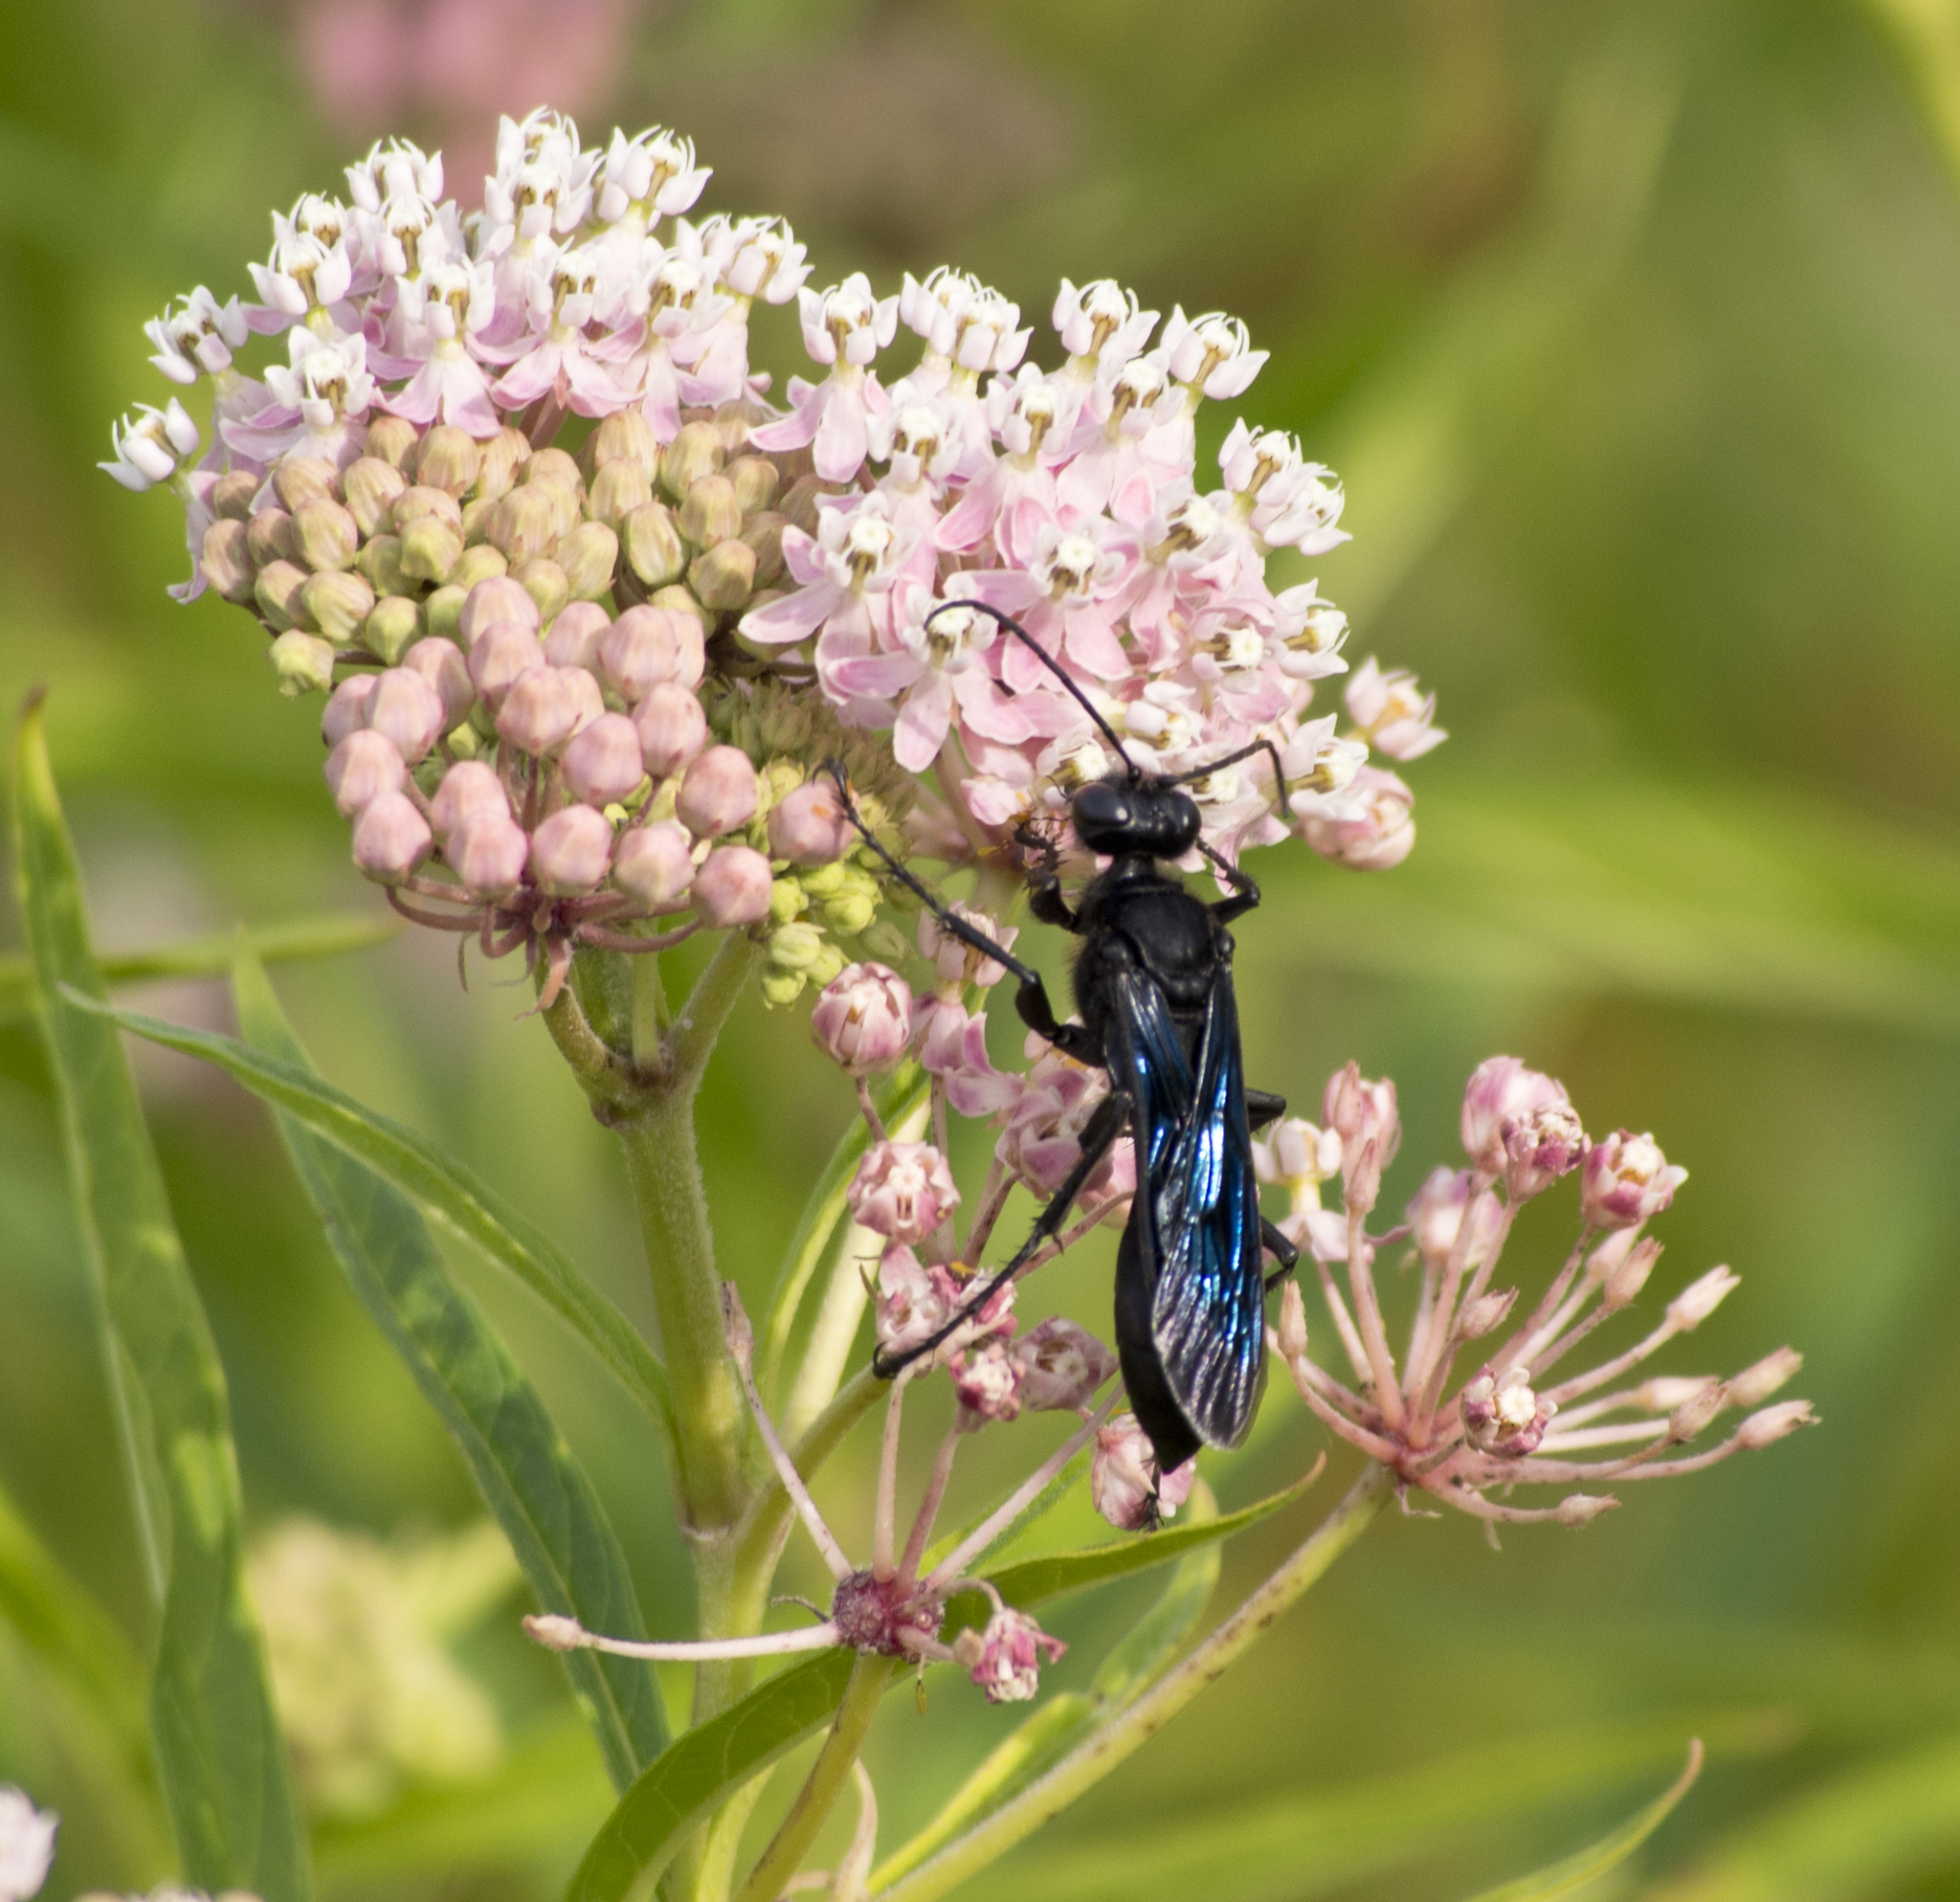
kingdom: Animalia
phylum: Arthropoda
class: Insecta
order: Hymenoptera
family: Sphecidae
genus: Sphex
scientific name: Sphex pensylvanicus
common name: Great black digger wasp
